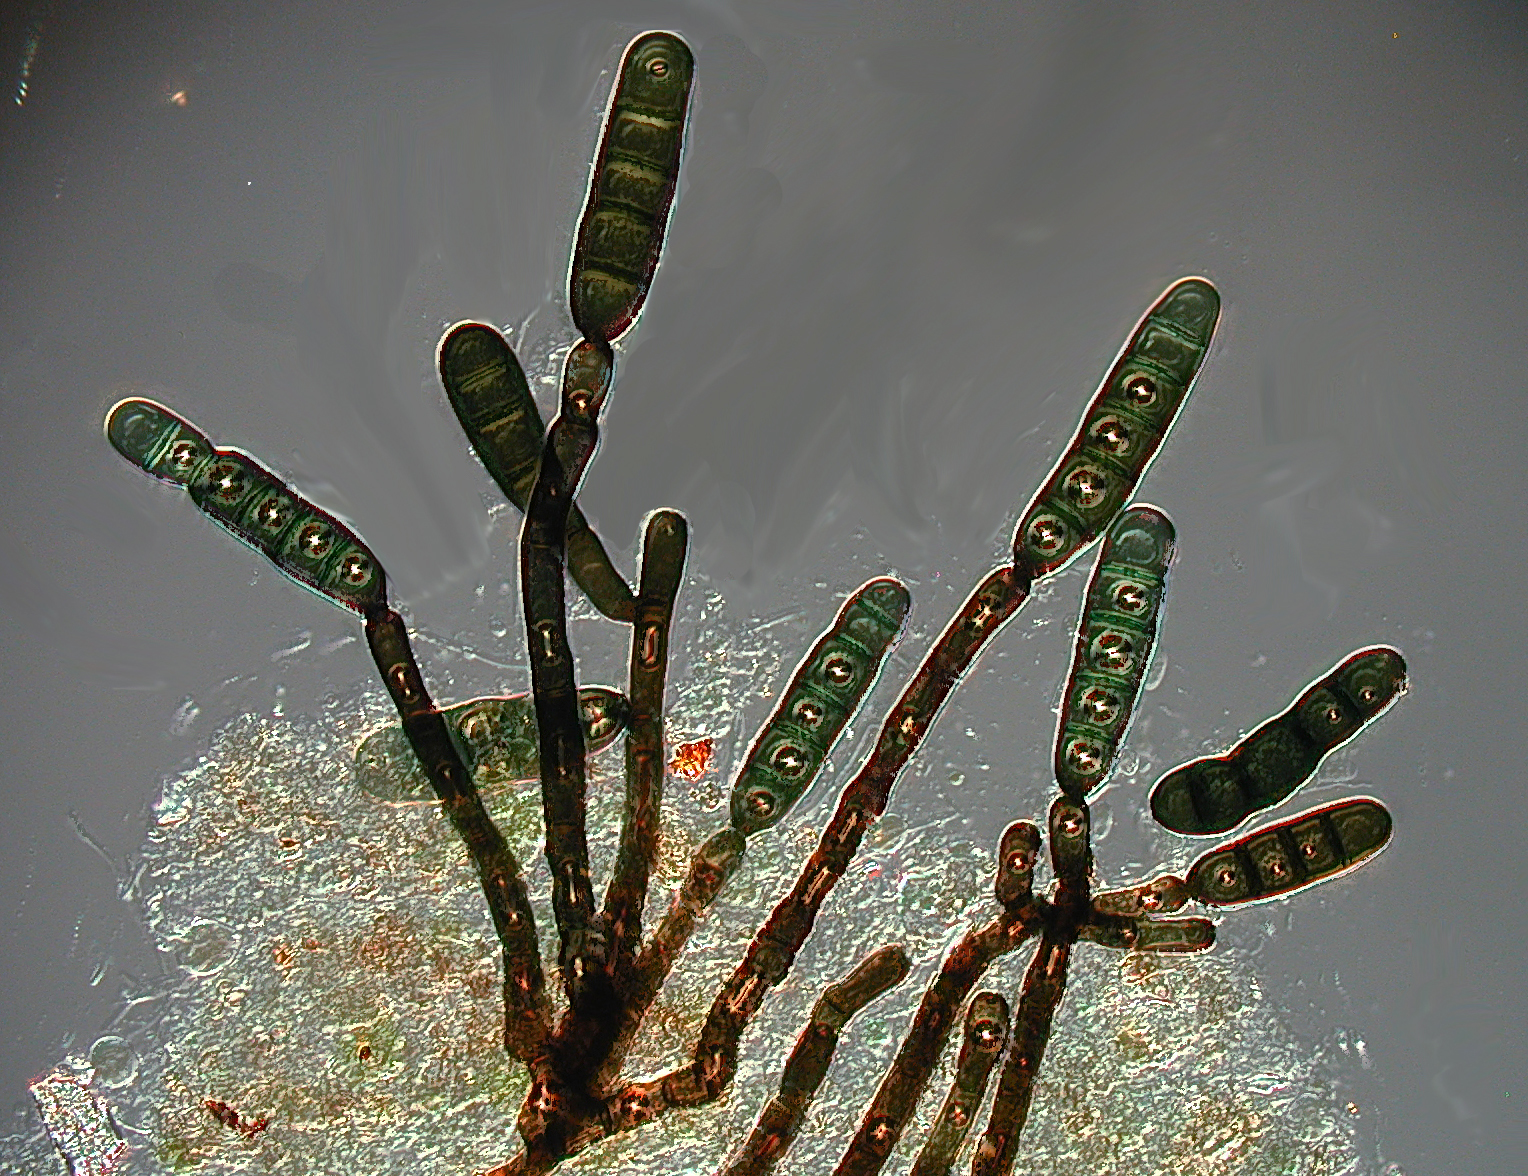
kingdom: Fungi
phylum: Ascomycota
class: Dothideomycetes
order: Pleosporales
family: Kirschsteiniotheliaceae
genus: Kirschsteiniothelia
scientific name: Kirschsteiniothelia atra
